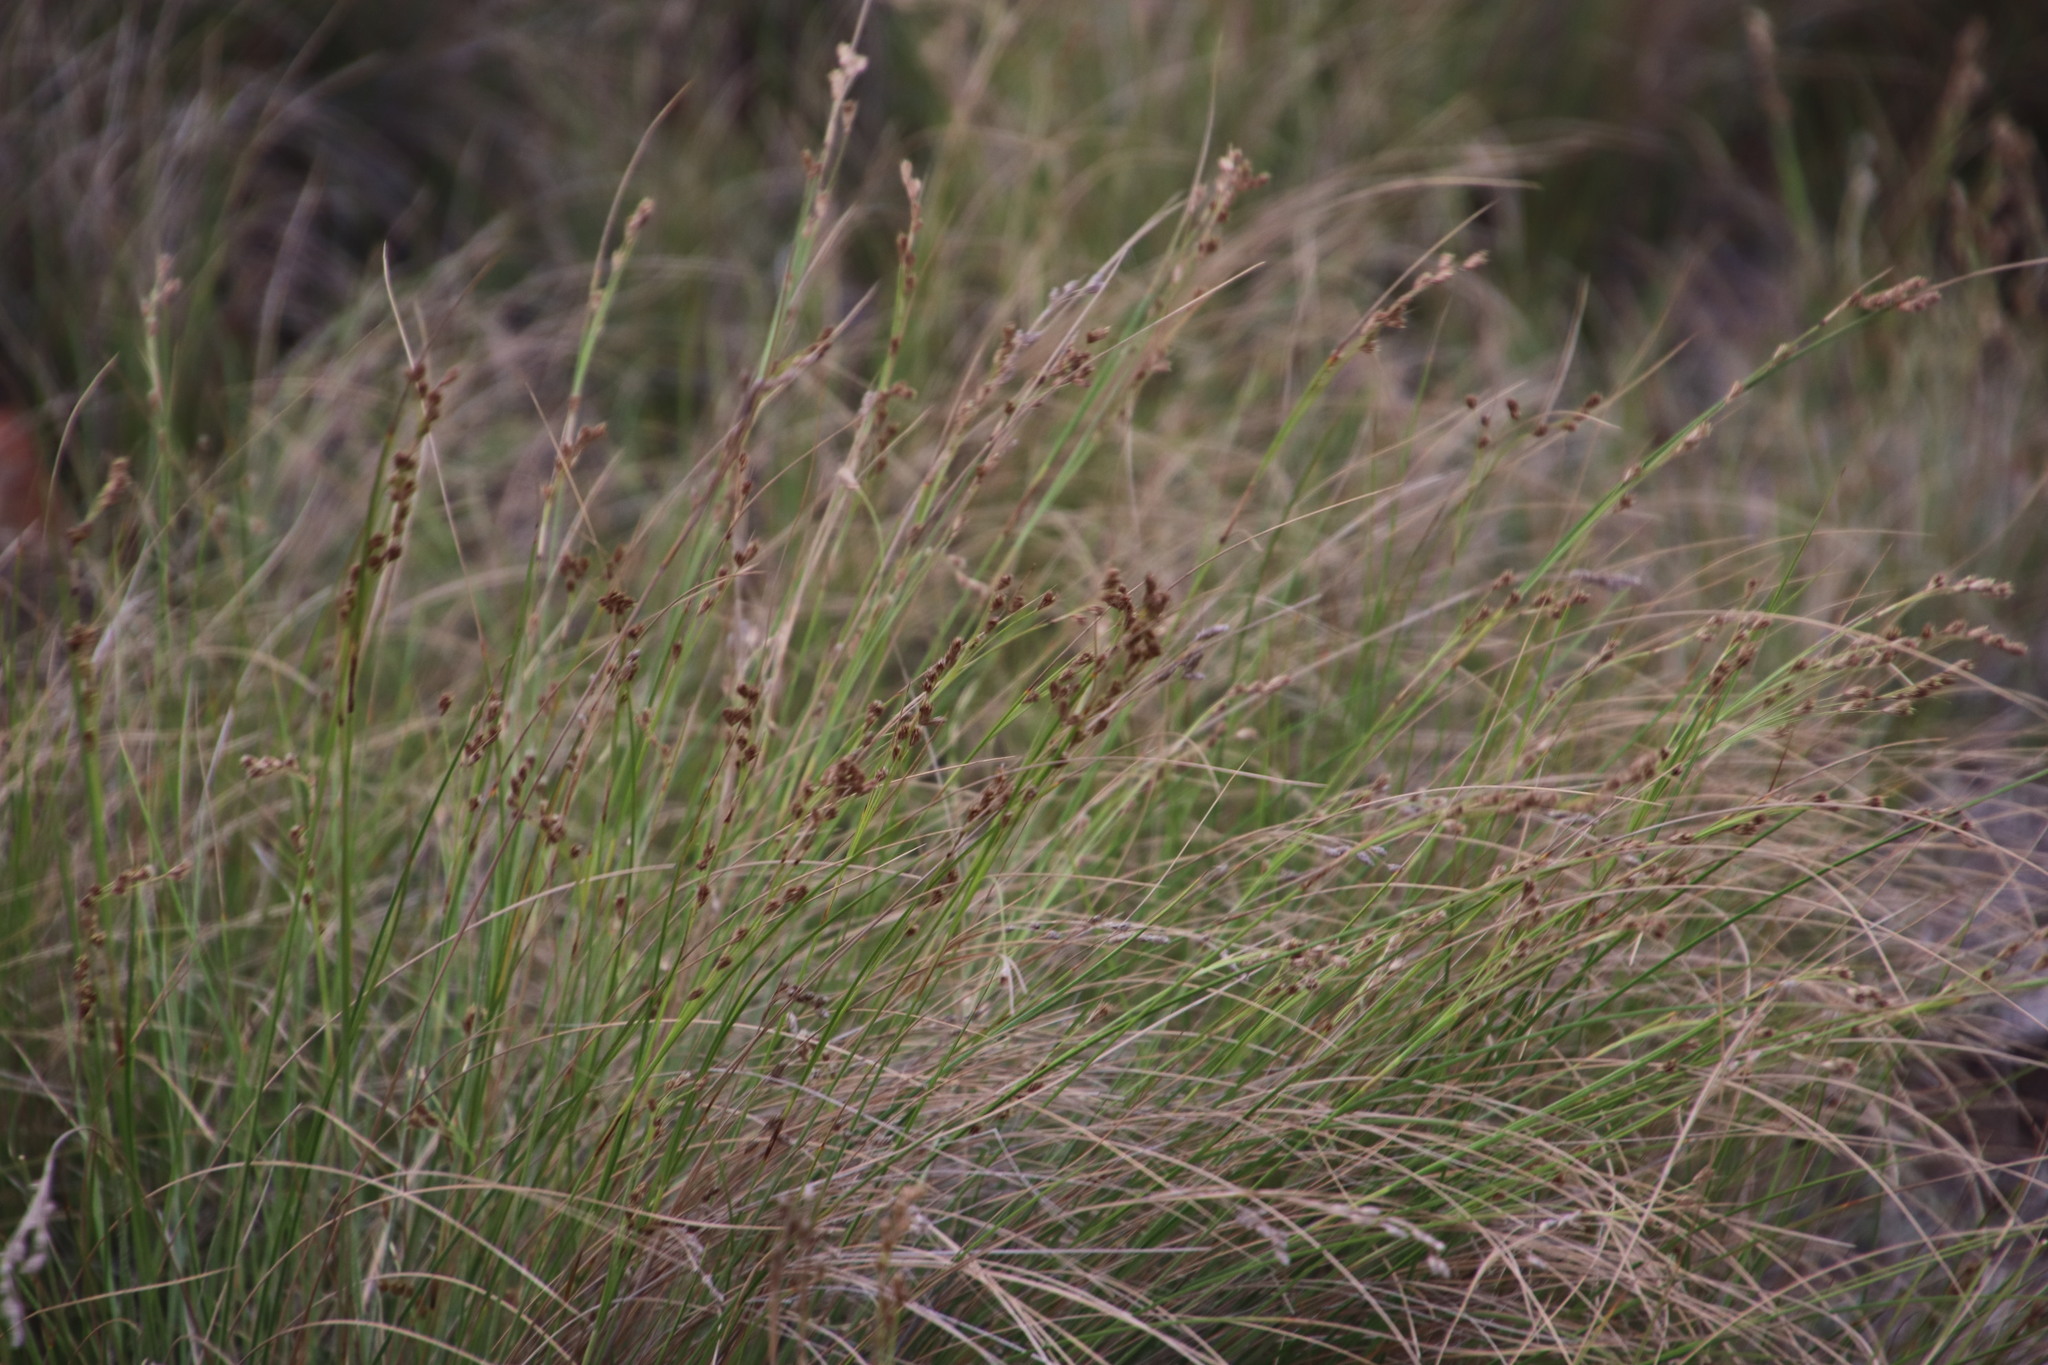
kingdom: Plantae
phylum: Tracheophyta
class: Liliopsida
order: Poales
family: Cyperaceae
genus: Coleochloa
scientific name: Coleochloa setifera
